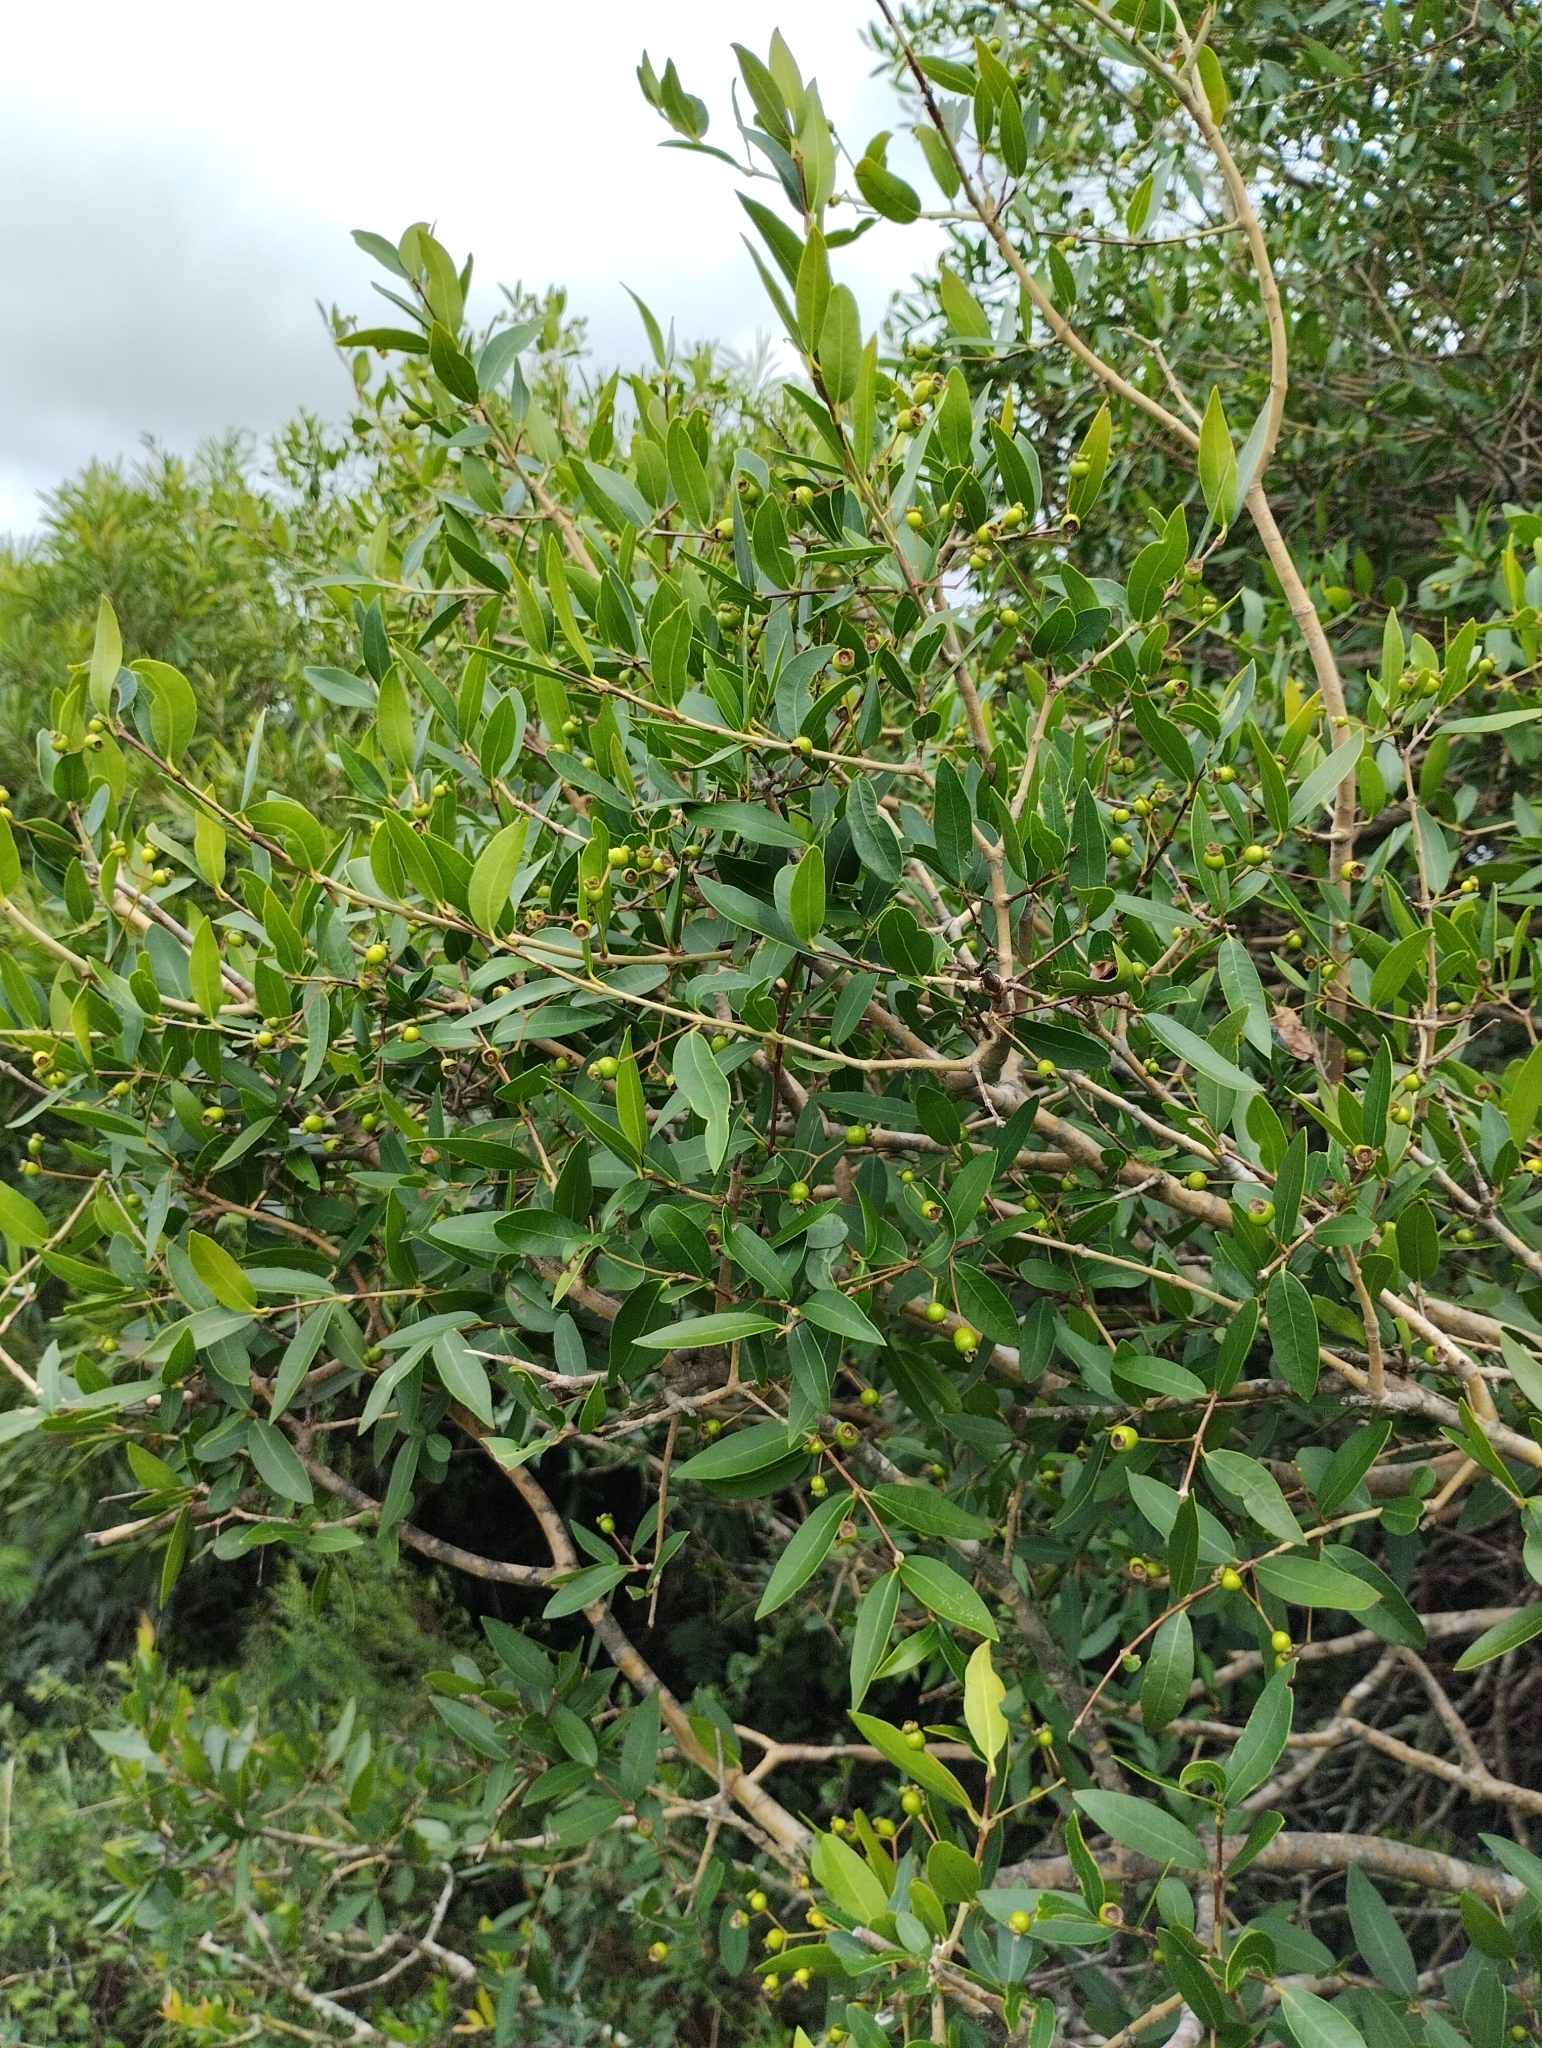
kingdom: Plantae
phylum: Tracheophyta
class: Magnoliopsida
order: Myrtales
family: Myrtaceae
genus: Myrcianthes
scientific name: Myrcianthes cisplatensis
